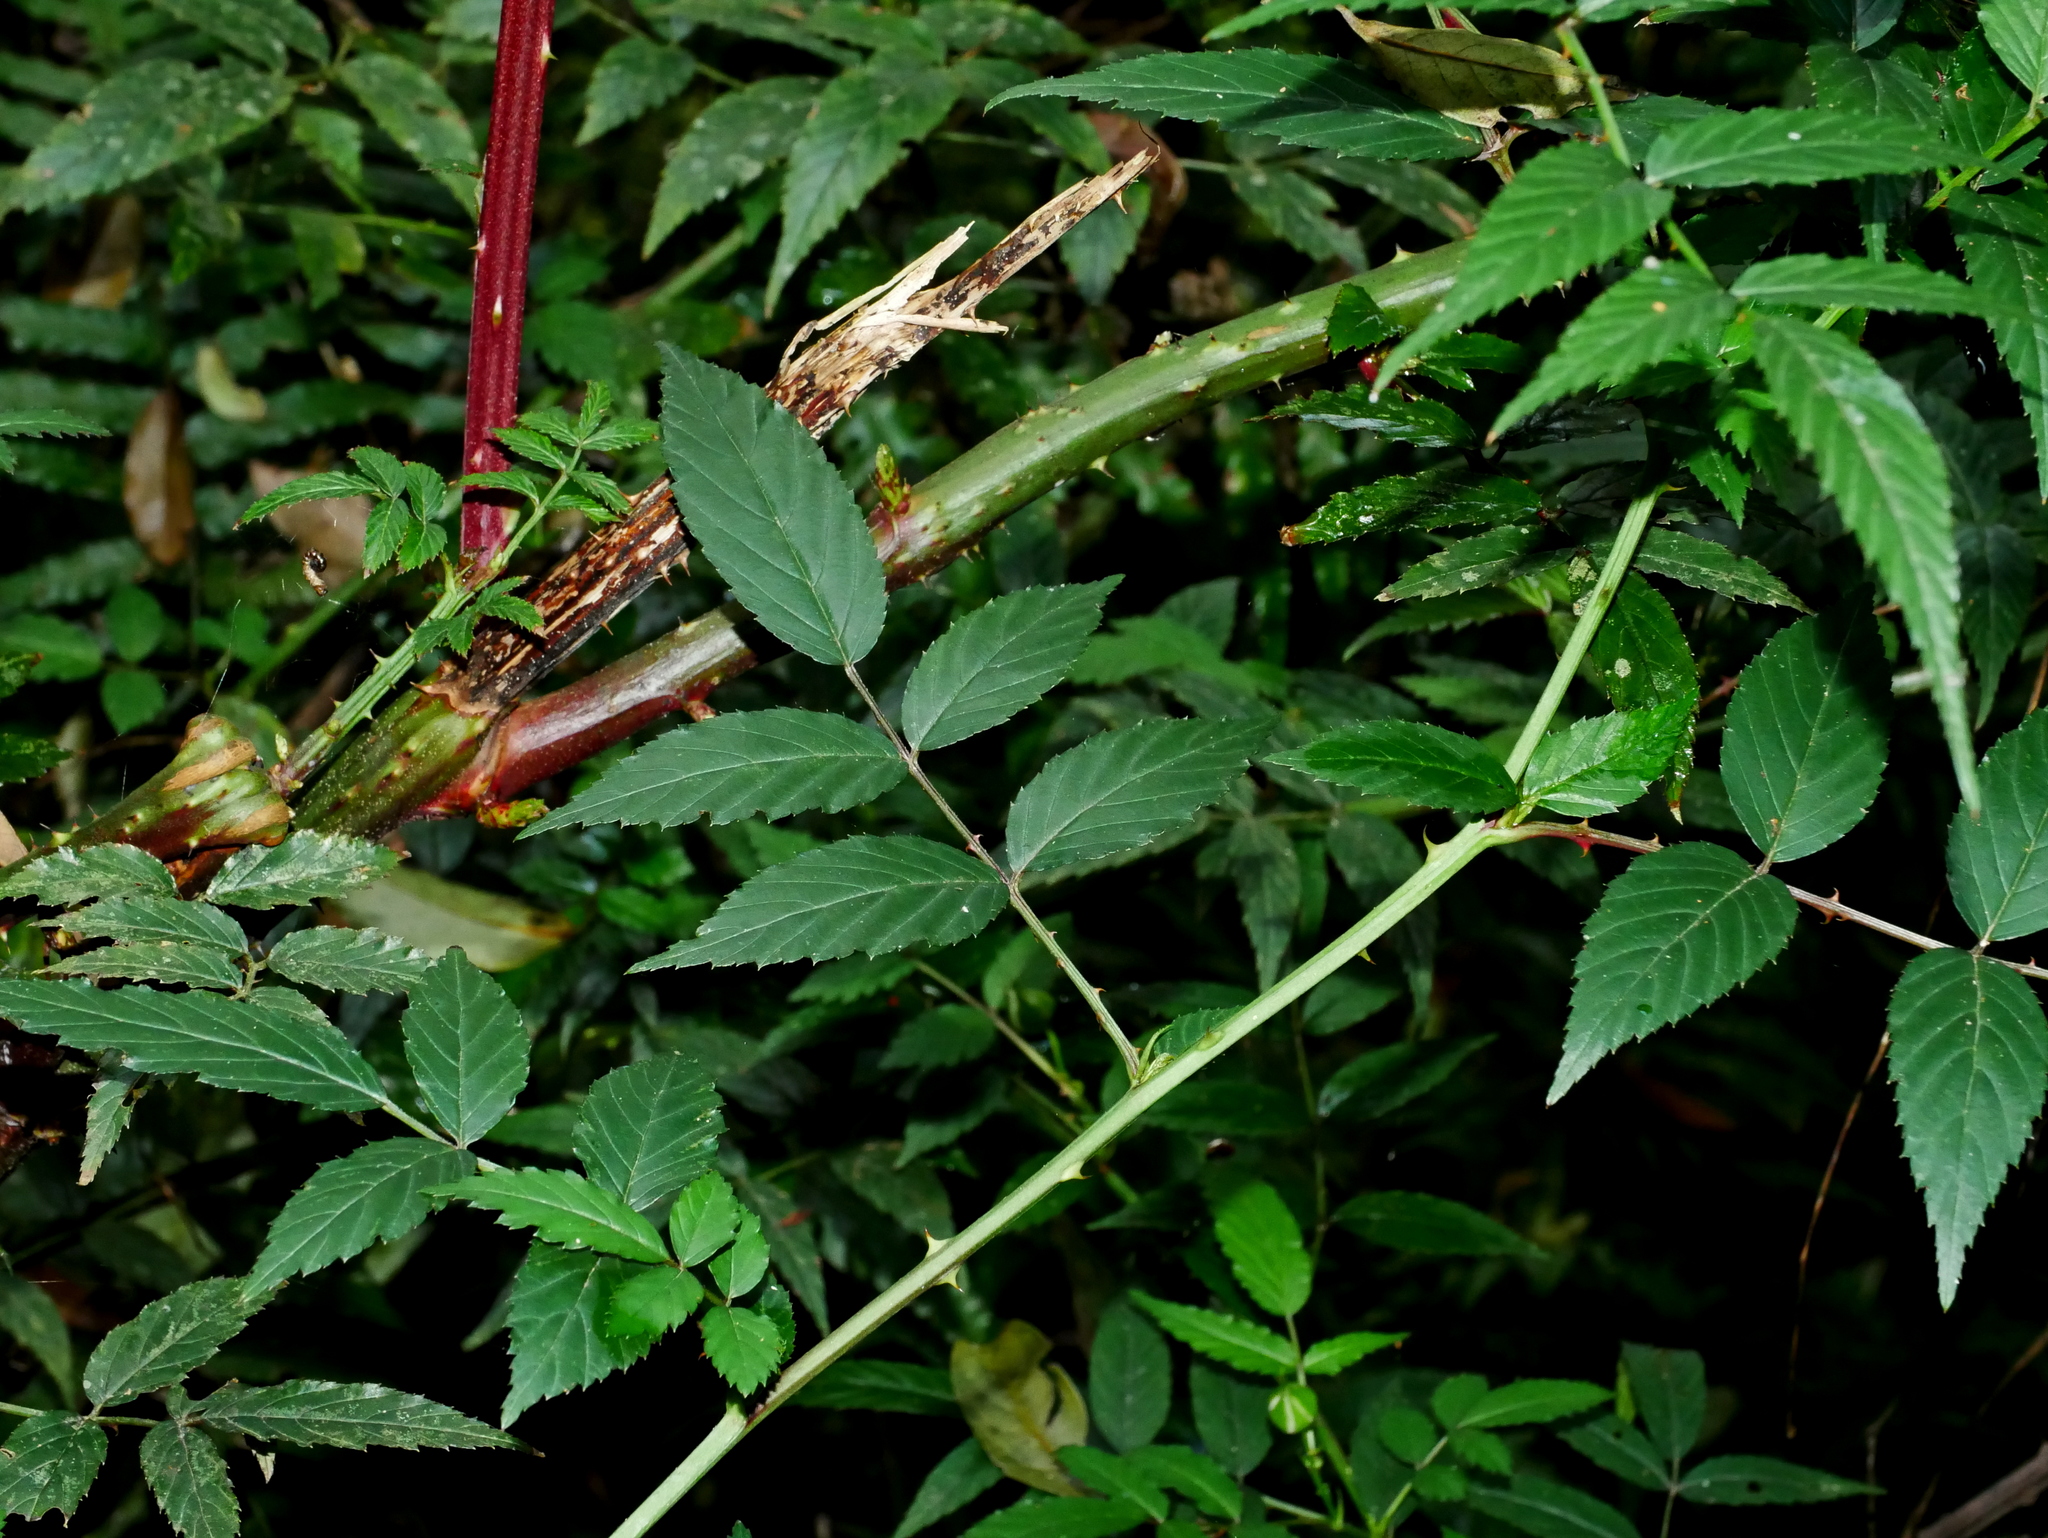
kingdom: Plantae
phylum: Tracheophyta
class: Magnoliopsida
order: Rosales
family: Rosaceae
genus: Rubus
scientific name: Rubus croceacanthus
